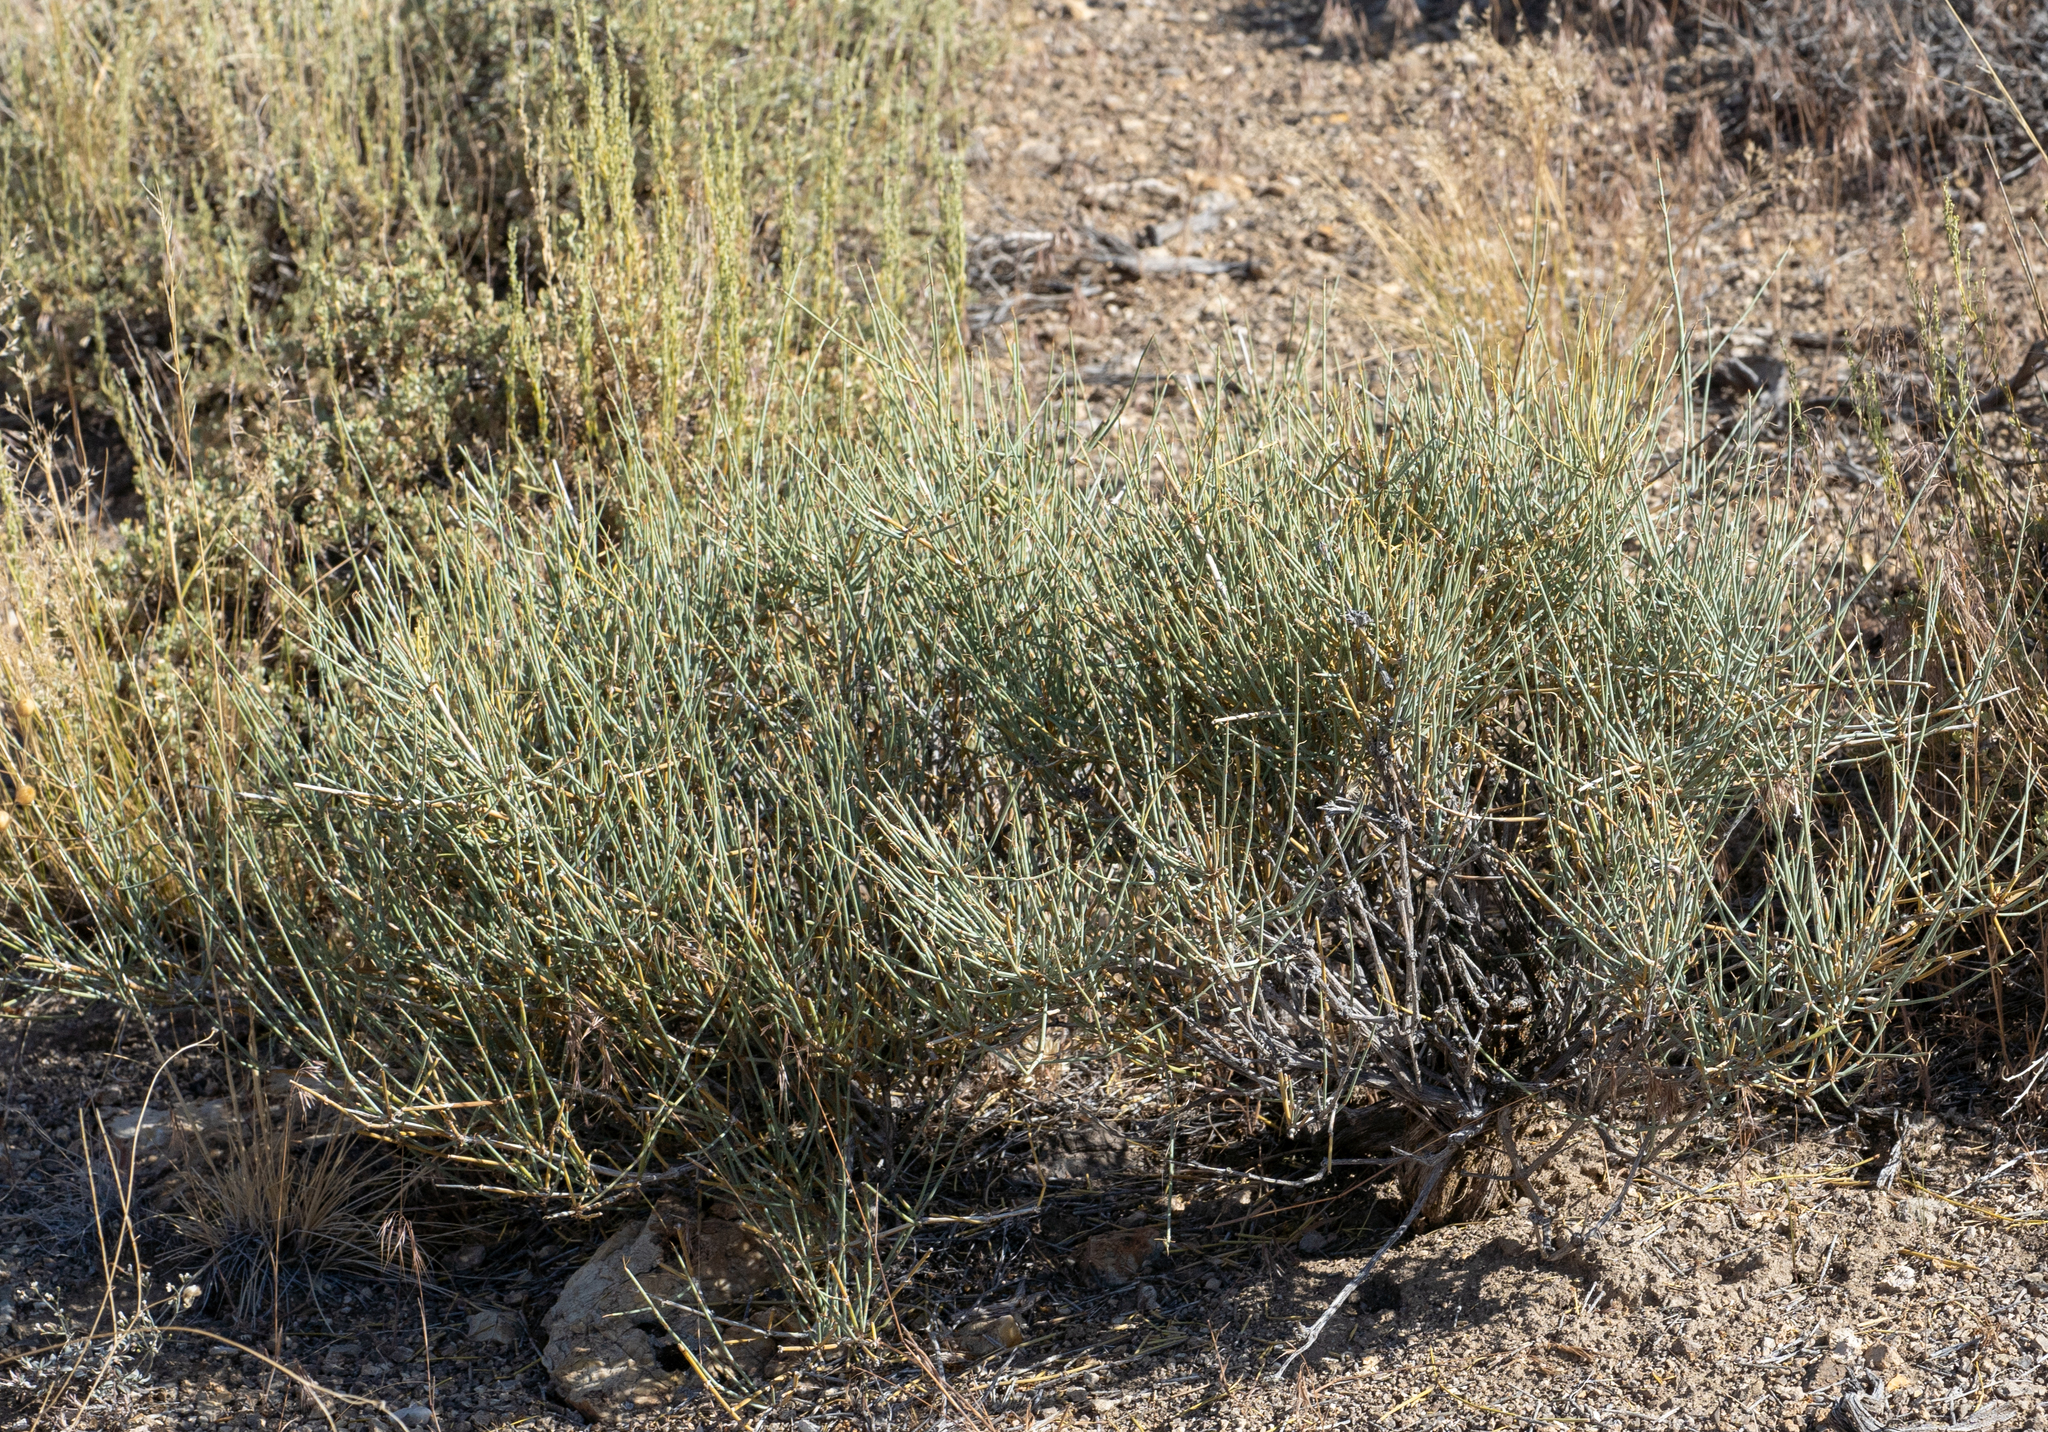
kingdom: Plantae
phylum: Tracheophyta
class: Gnetopsida
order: Ephedrales
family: Ephedraceae
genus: Ephedra
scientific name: Ephedra nevadensis
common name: Gray ephedra
